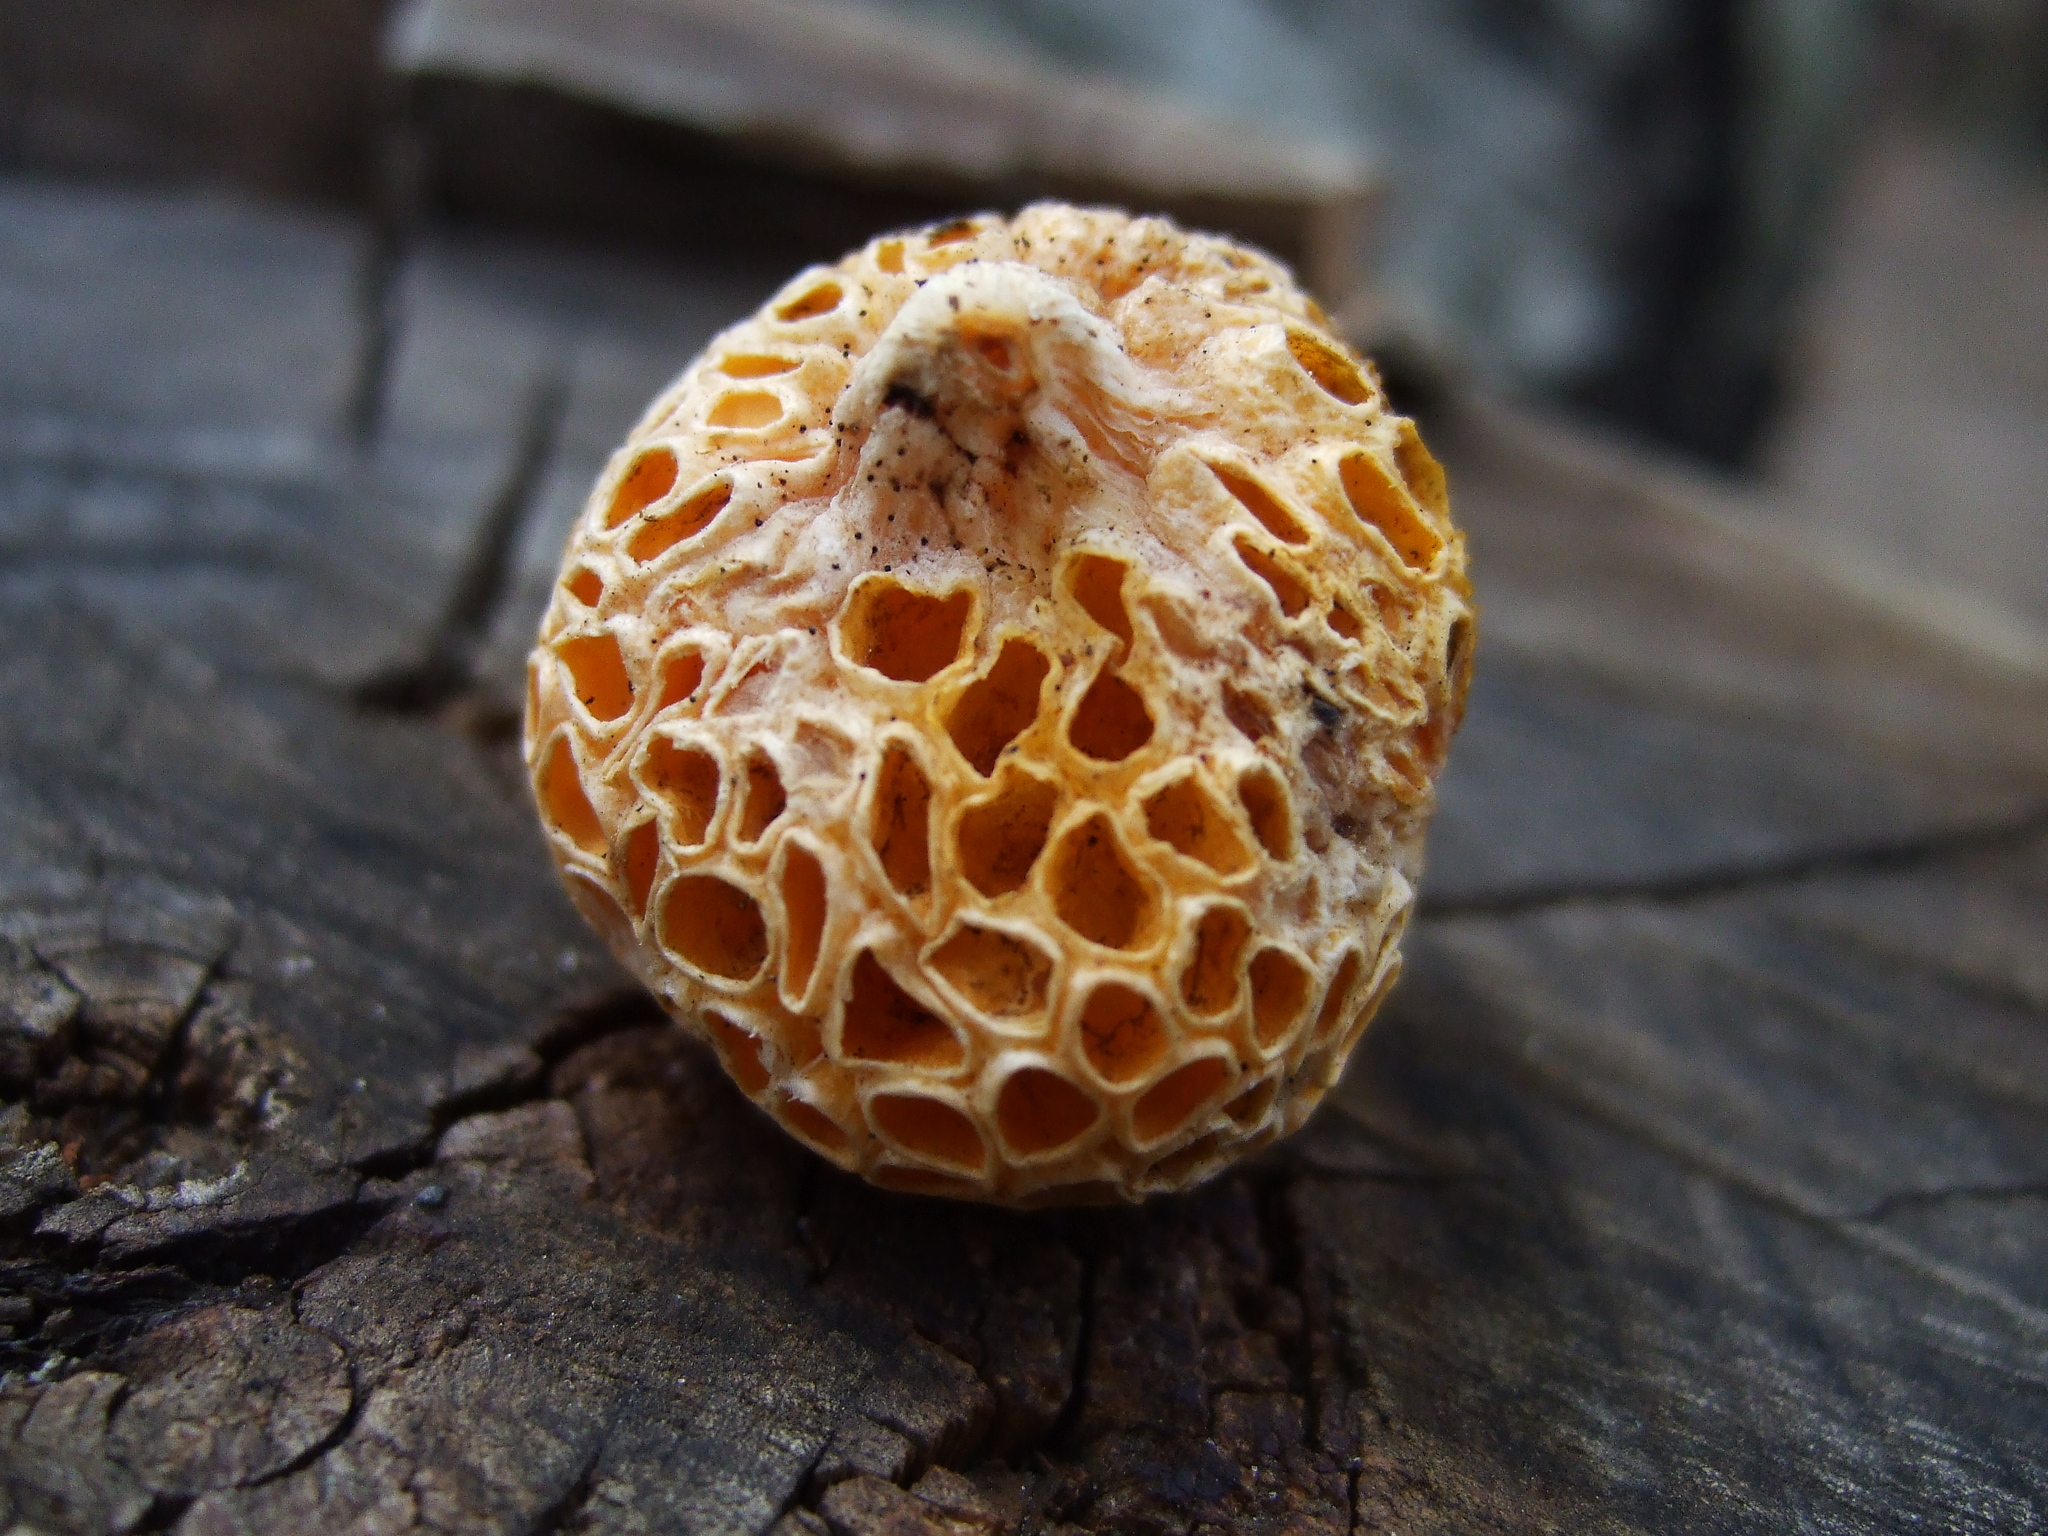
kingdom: Fungi
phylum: Ascomycota
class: Leotiomycetes
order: Cyttariales
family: Cyttariaceae
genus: Cyttaria
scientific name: Cyttaria hariotii
